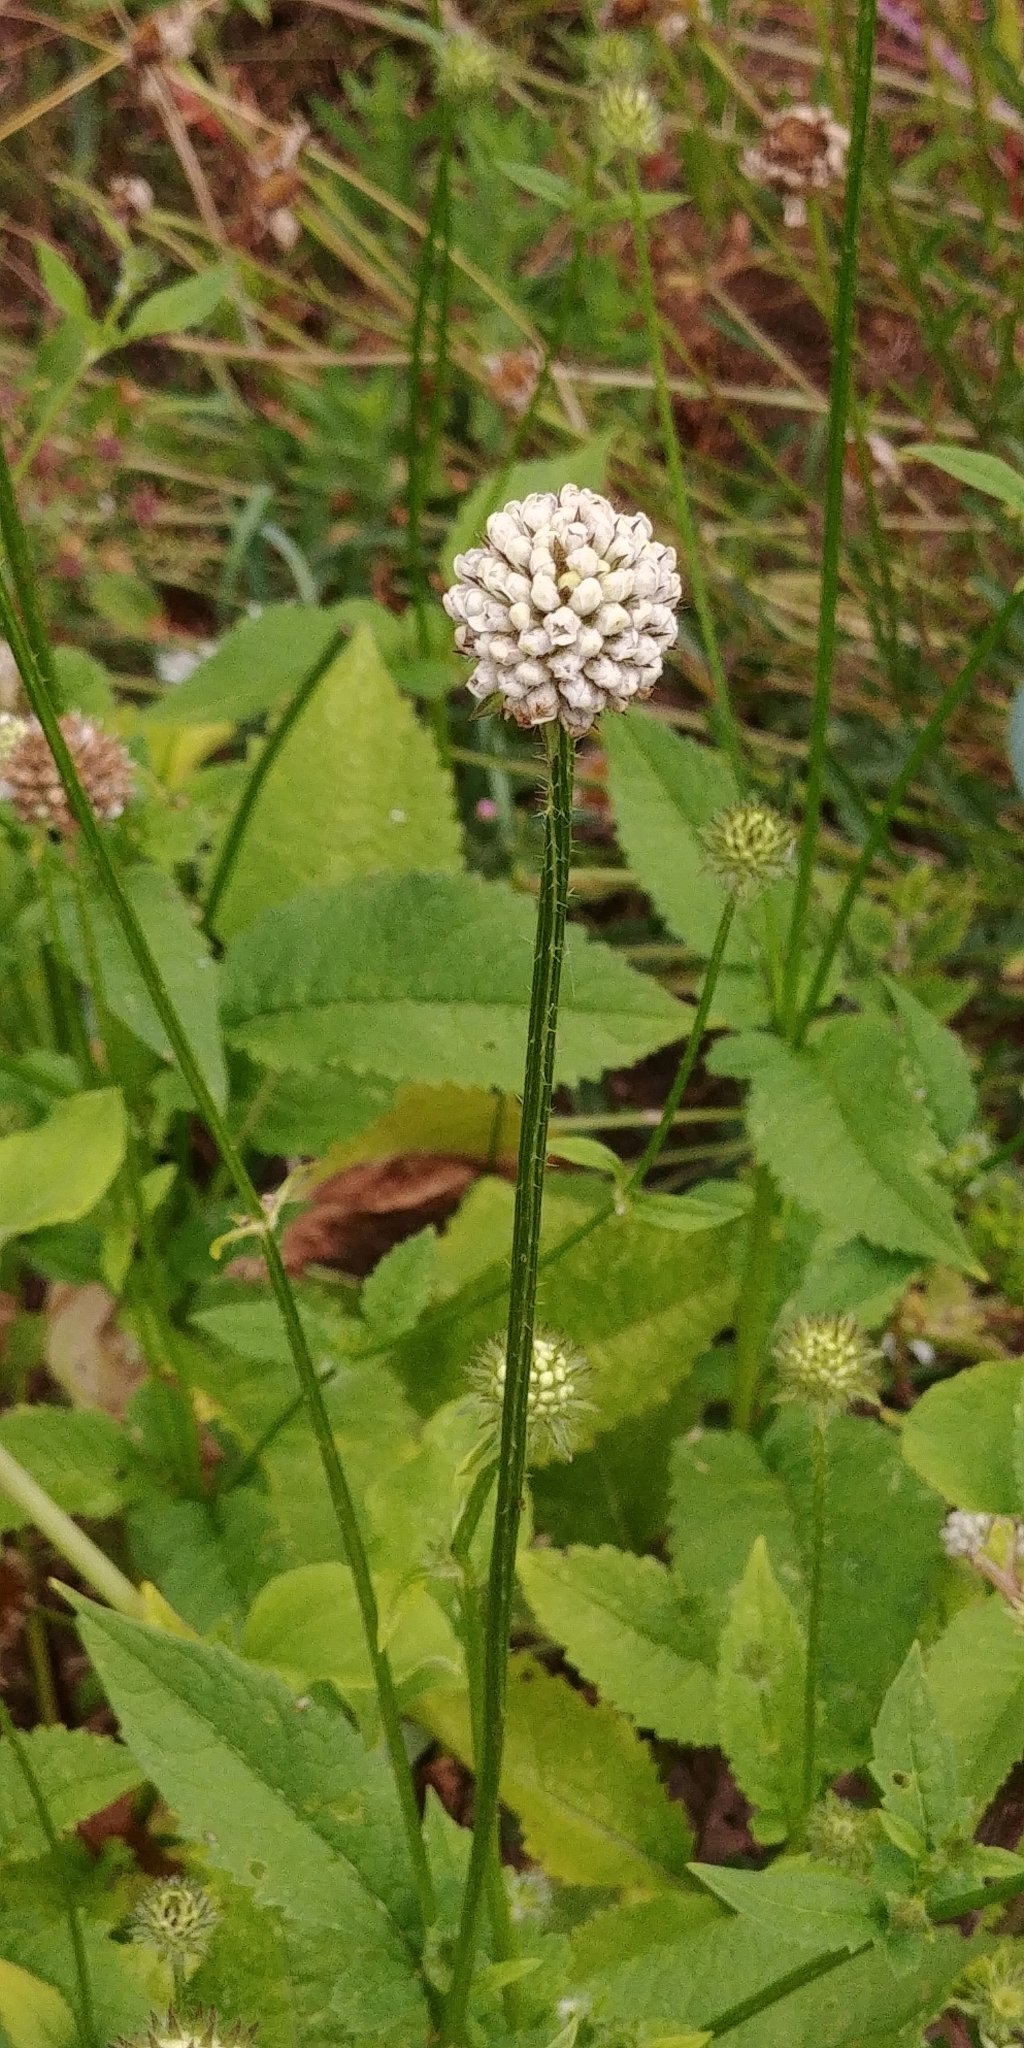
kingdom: Plantae
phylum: Tracheophyta
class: Magnoliopsida
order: Dipsacales
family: Caprifoliaceae
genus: Dipsacus
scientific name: Dipsacus pilosus
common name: Small teasel
